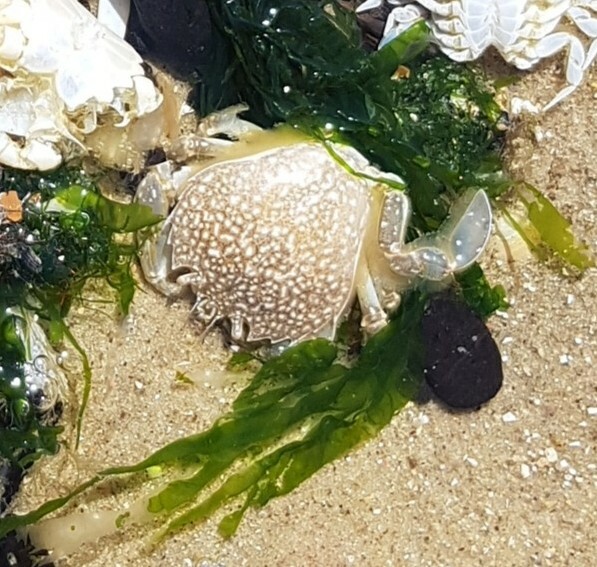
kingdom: Animalia
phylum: Arthropoda
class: Malacostraca
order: Decapoda
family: Carcinidae
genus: Portumnus
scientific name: Portumnus latipes
